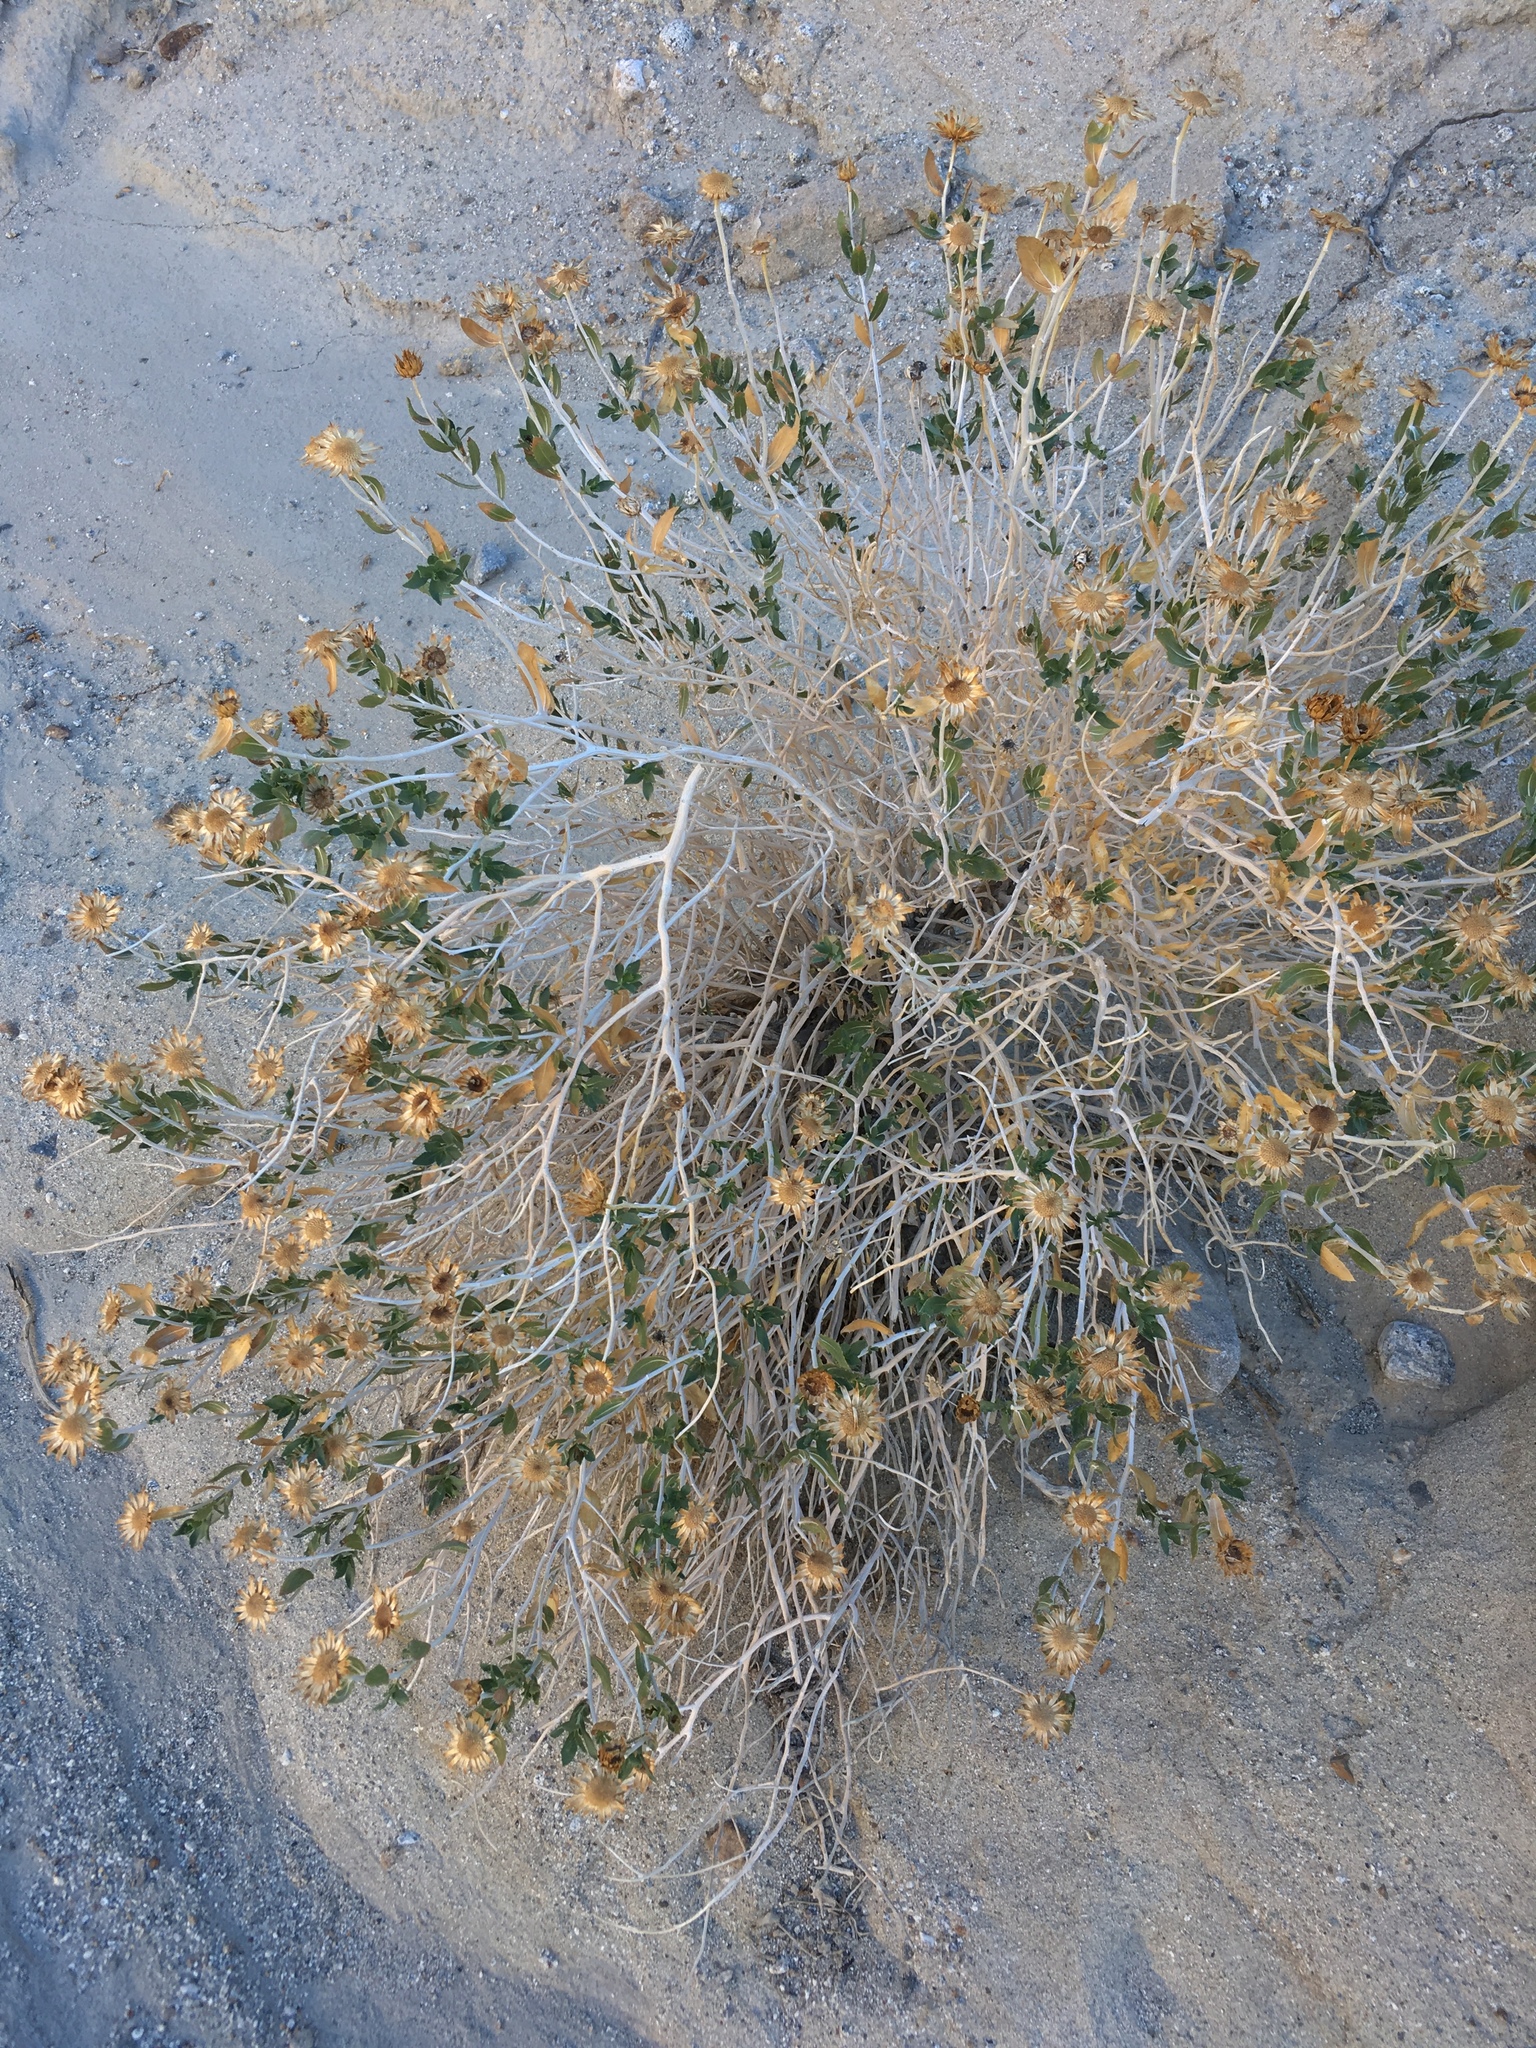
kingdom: Plantae
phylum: Tracheophyta
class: Magnoliopsida
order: Asterales
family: Asteraceae
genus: Xylorhiza
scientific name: Xylorhiza orcuttii
